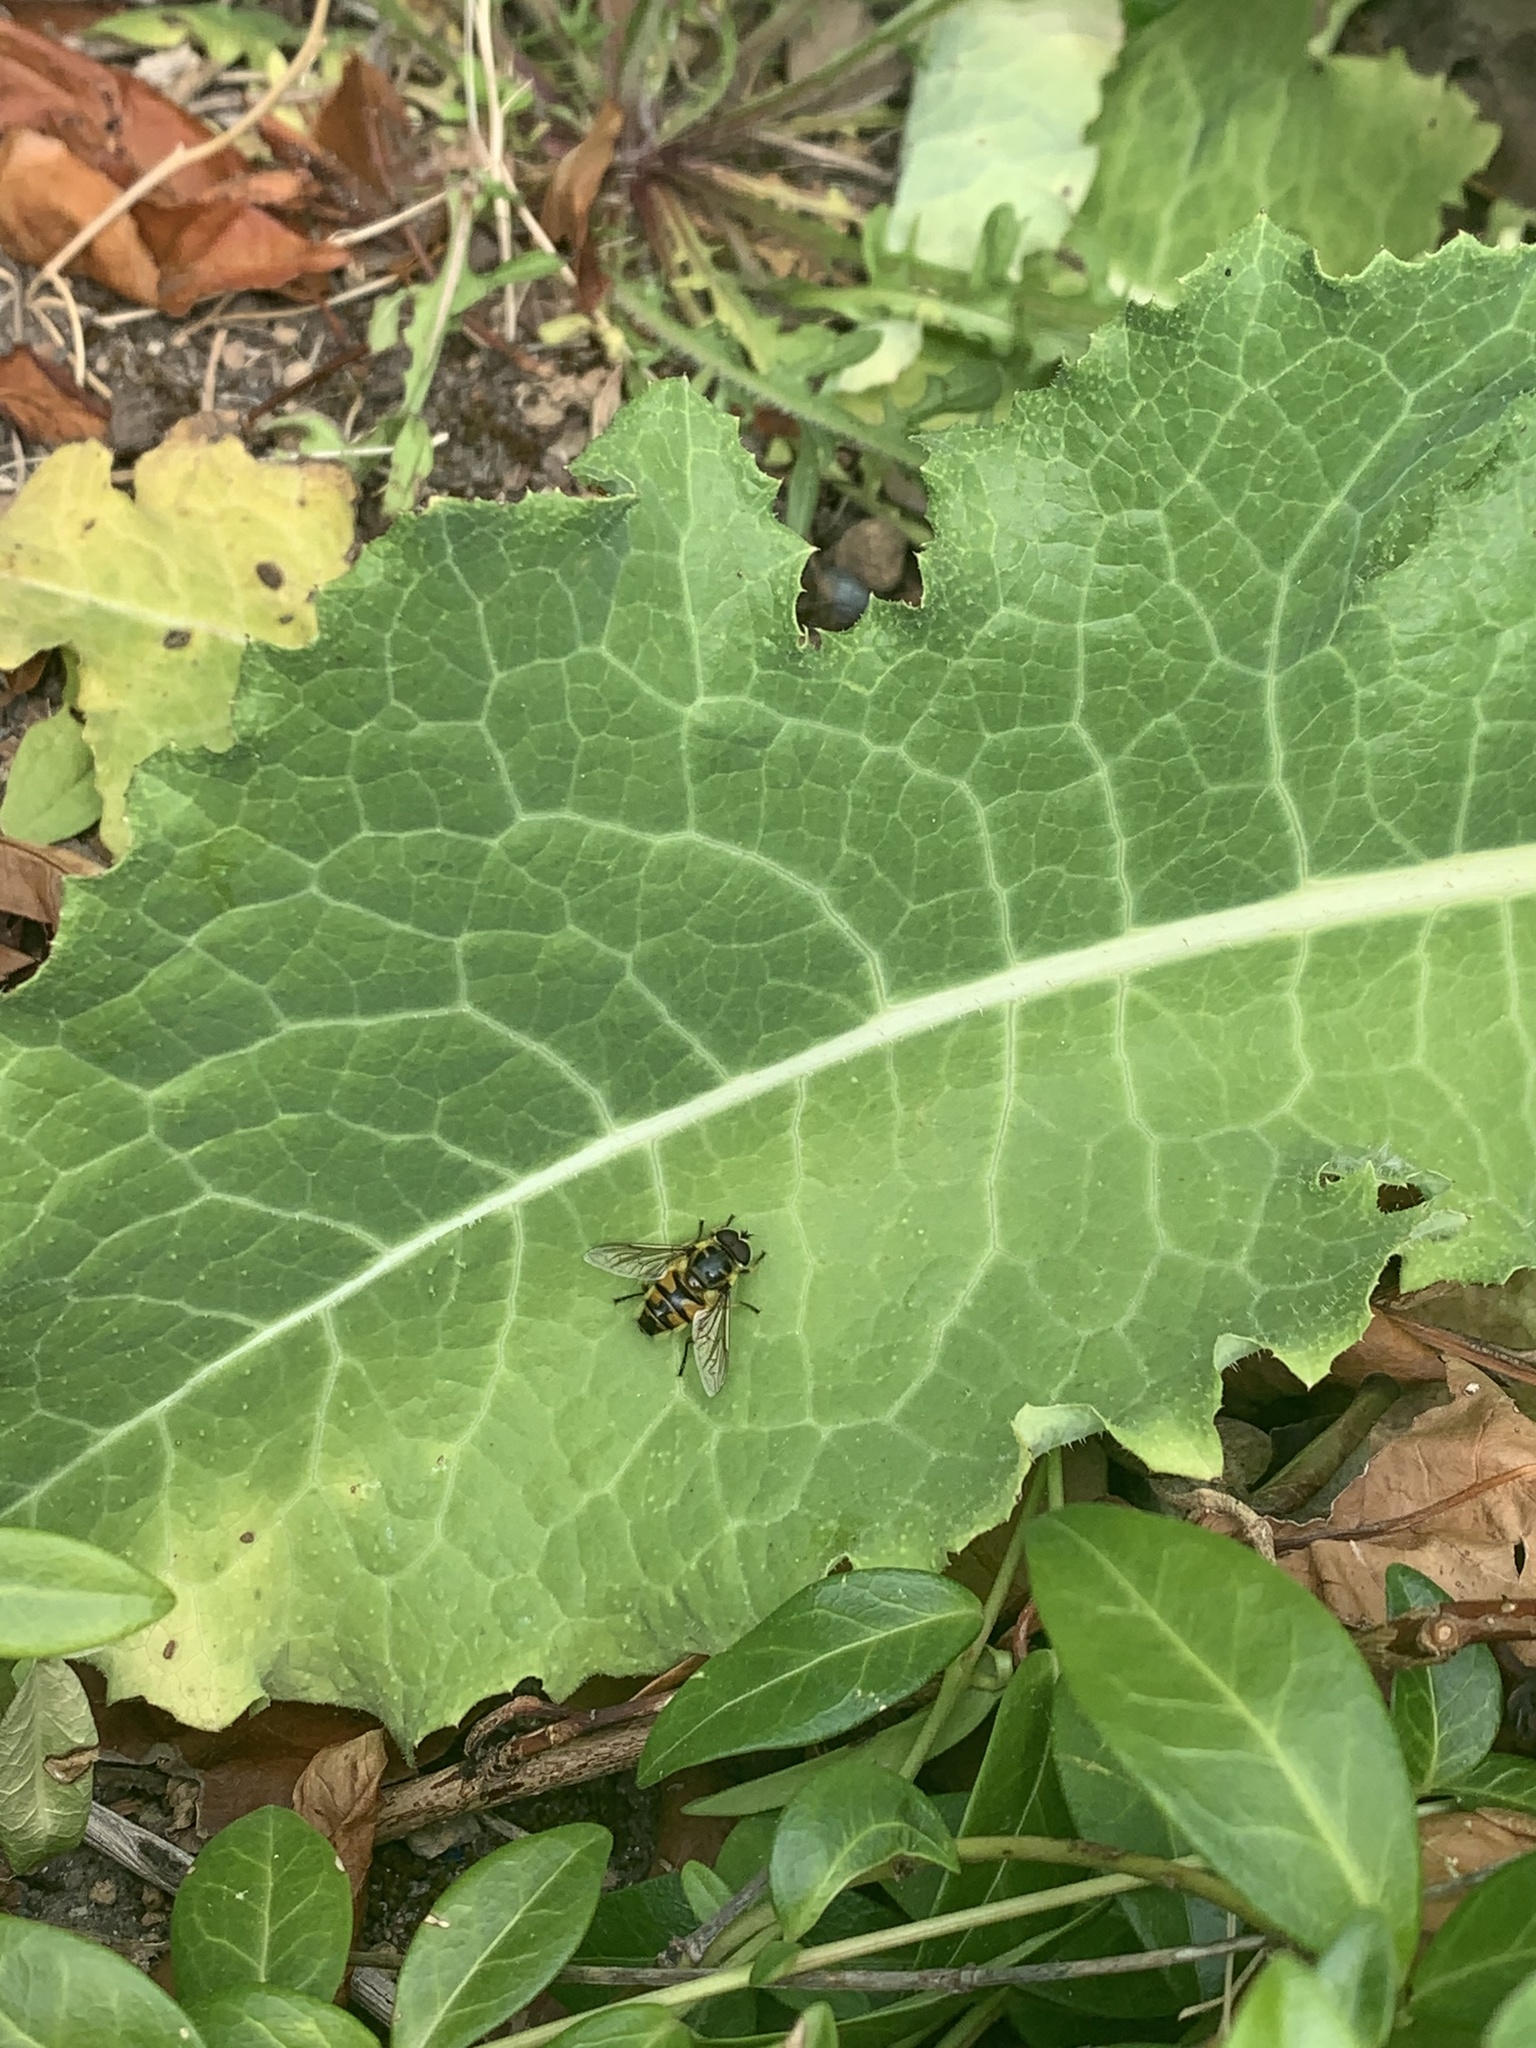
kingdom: Animalia
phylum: Arthropoda
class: Insecta
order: Diptera
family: Syrphidae
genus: Myathropa
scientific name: Myathropa florea
